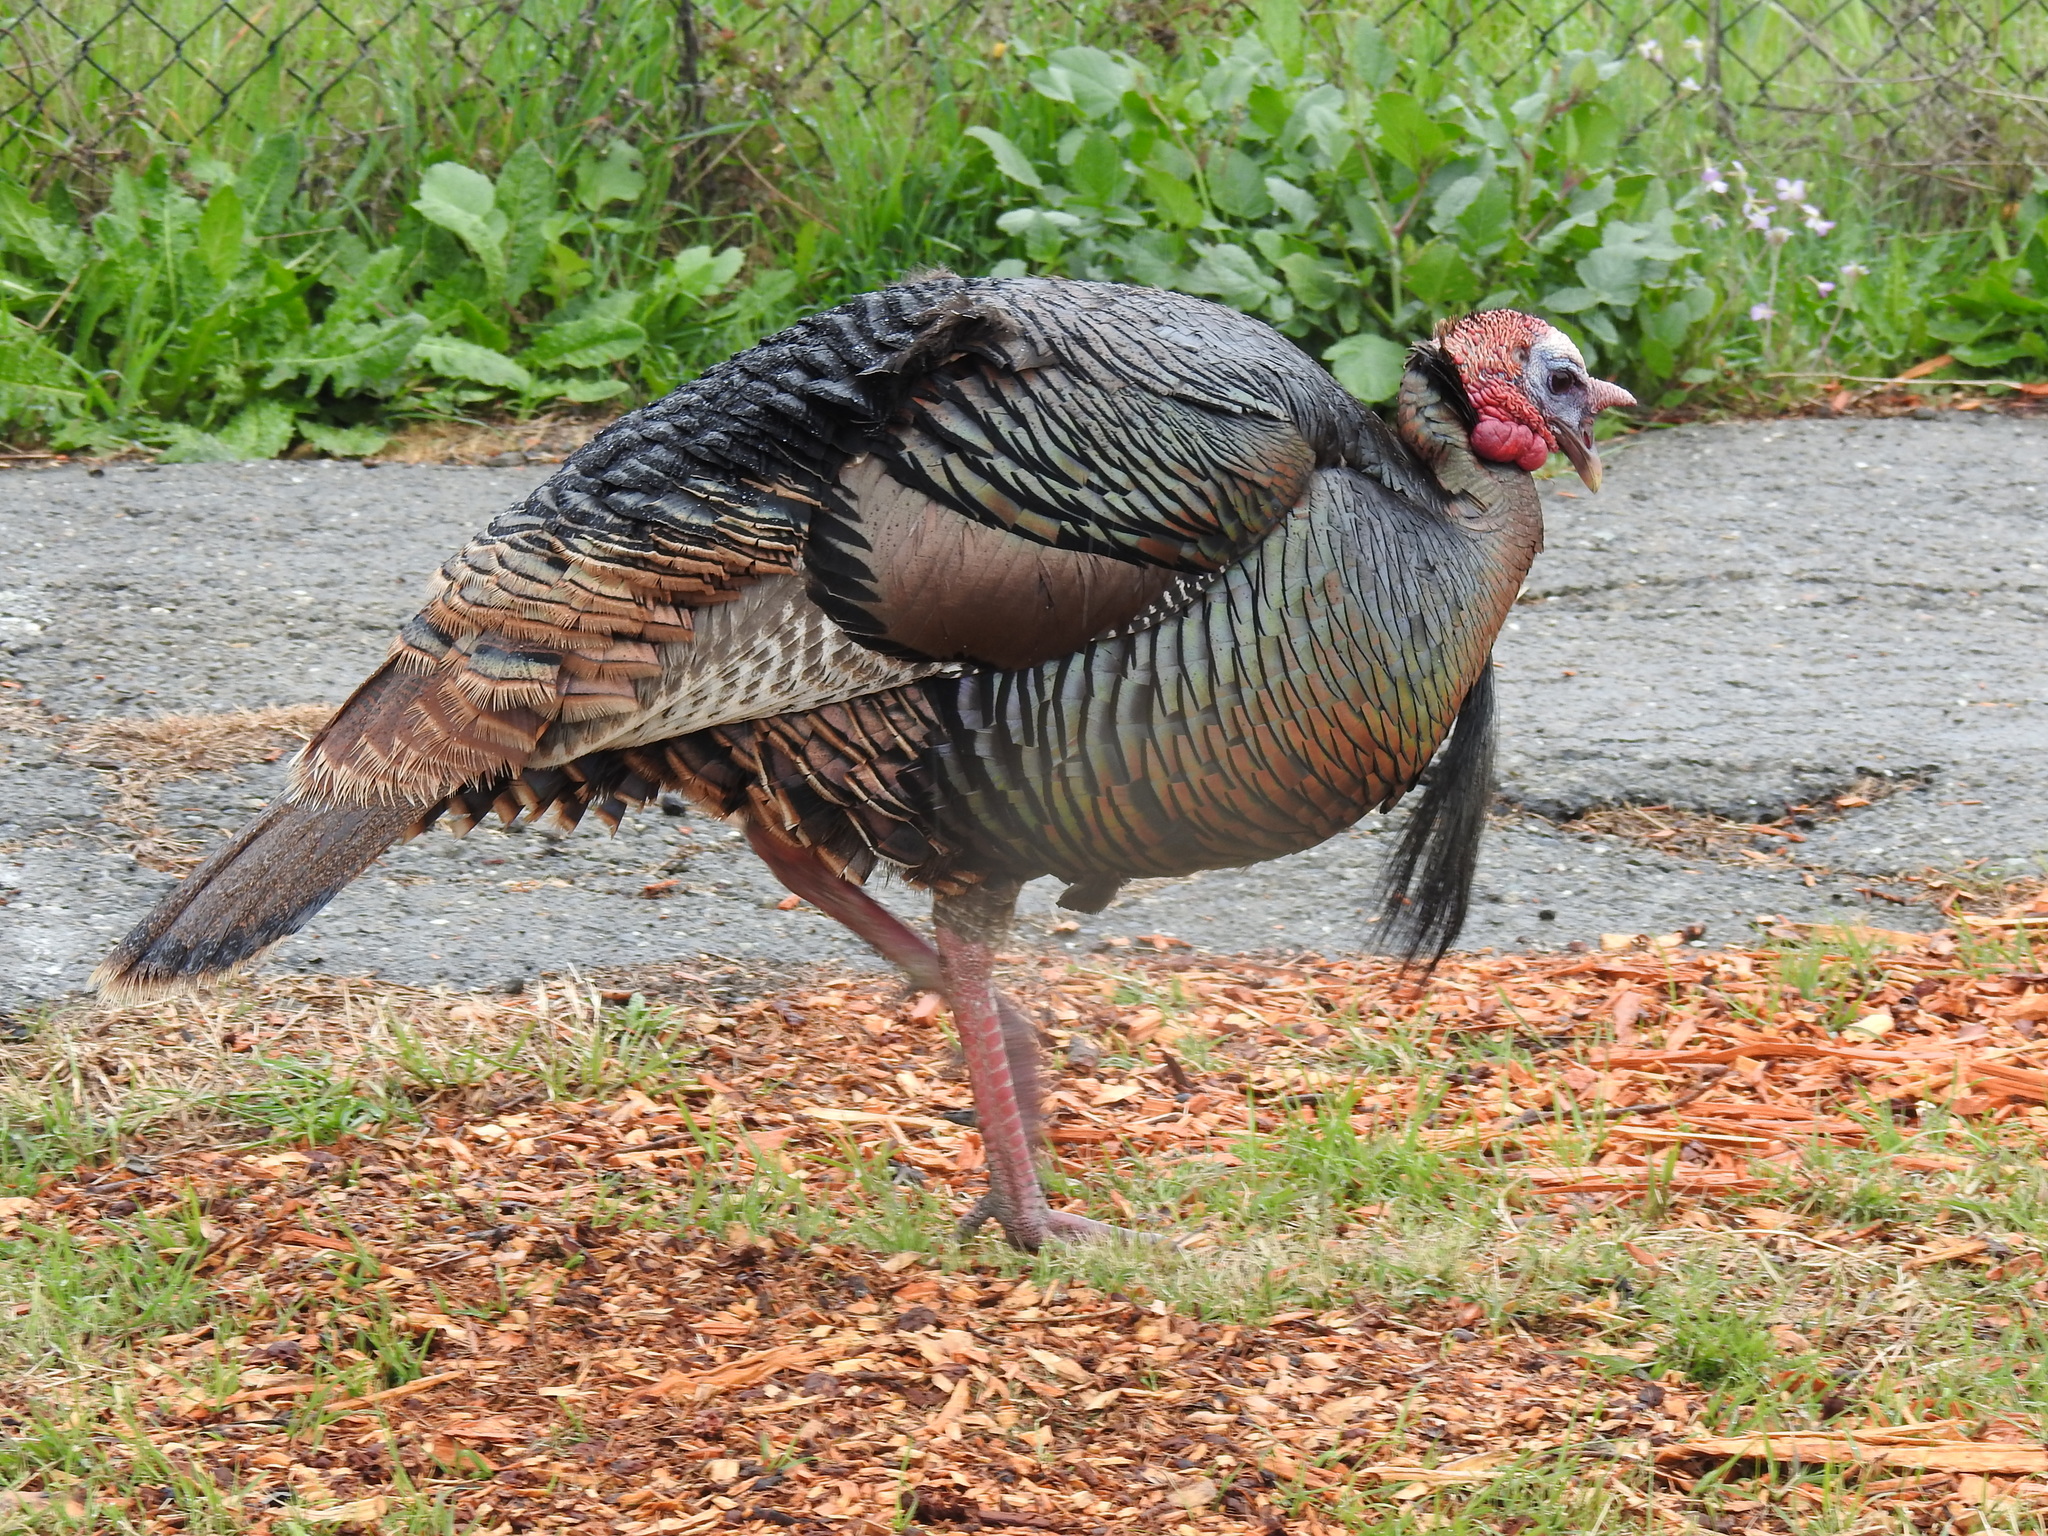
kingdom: Animalia
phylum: Chordata
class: Aves
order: Galliformes
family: Phasianidae
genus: Meleagris
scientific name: Meleagris gallopavo
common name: Wild turkey
